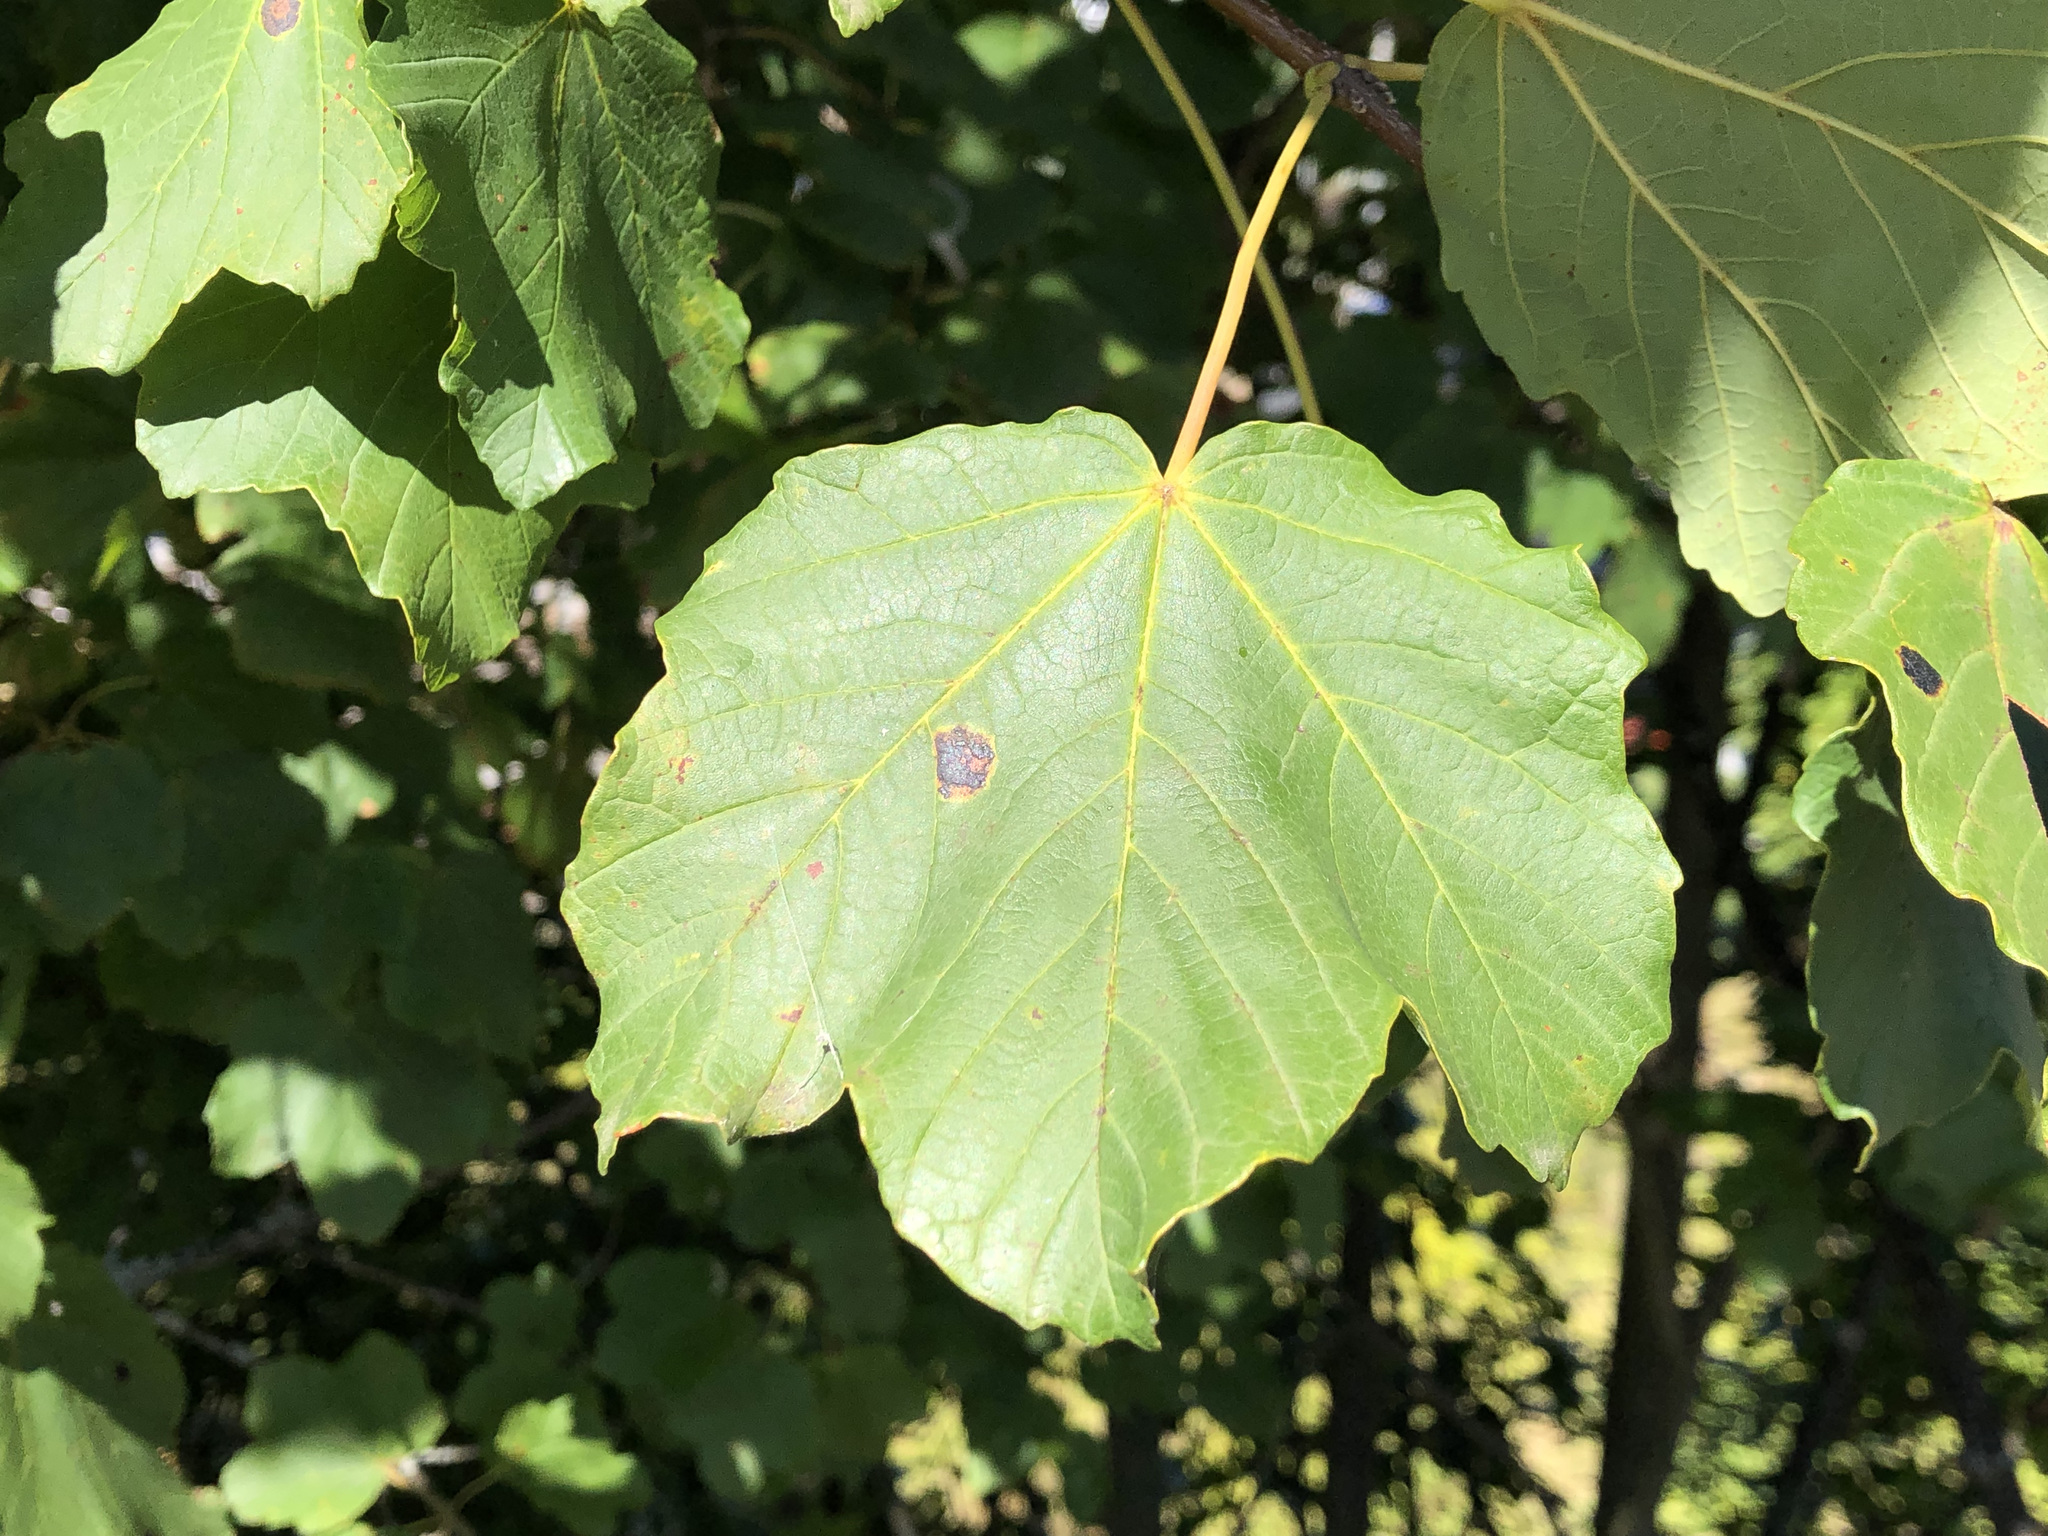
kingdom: Plantae
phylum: Tracheophyta
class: Magnoliopsida
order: Sapindales
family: Sapindaceae
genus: Acer
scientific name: Acer opalus
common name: Italian maple
